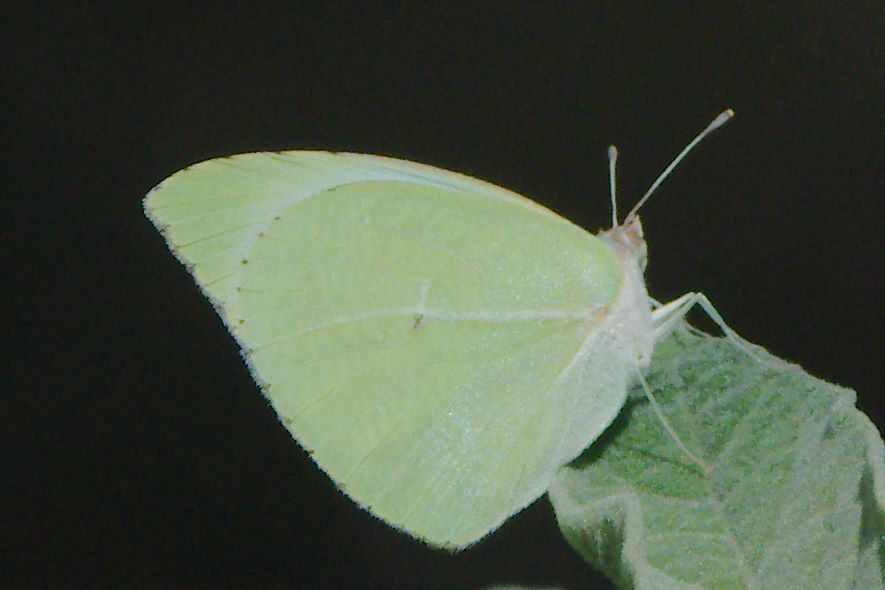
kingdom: Animalia
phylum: Arthropoda
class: Insecta
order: Lepidoptera
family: Pieridae
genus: Kricogonia
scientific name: Kricogonia lyside
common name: Guayacan sulphur,
